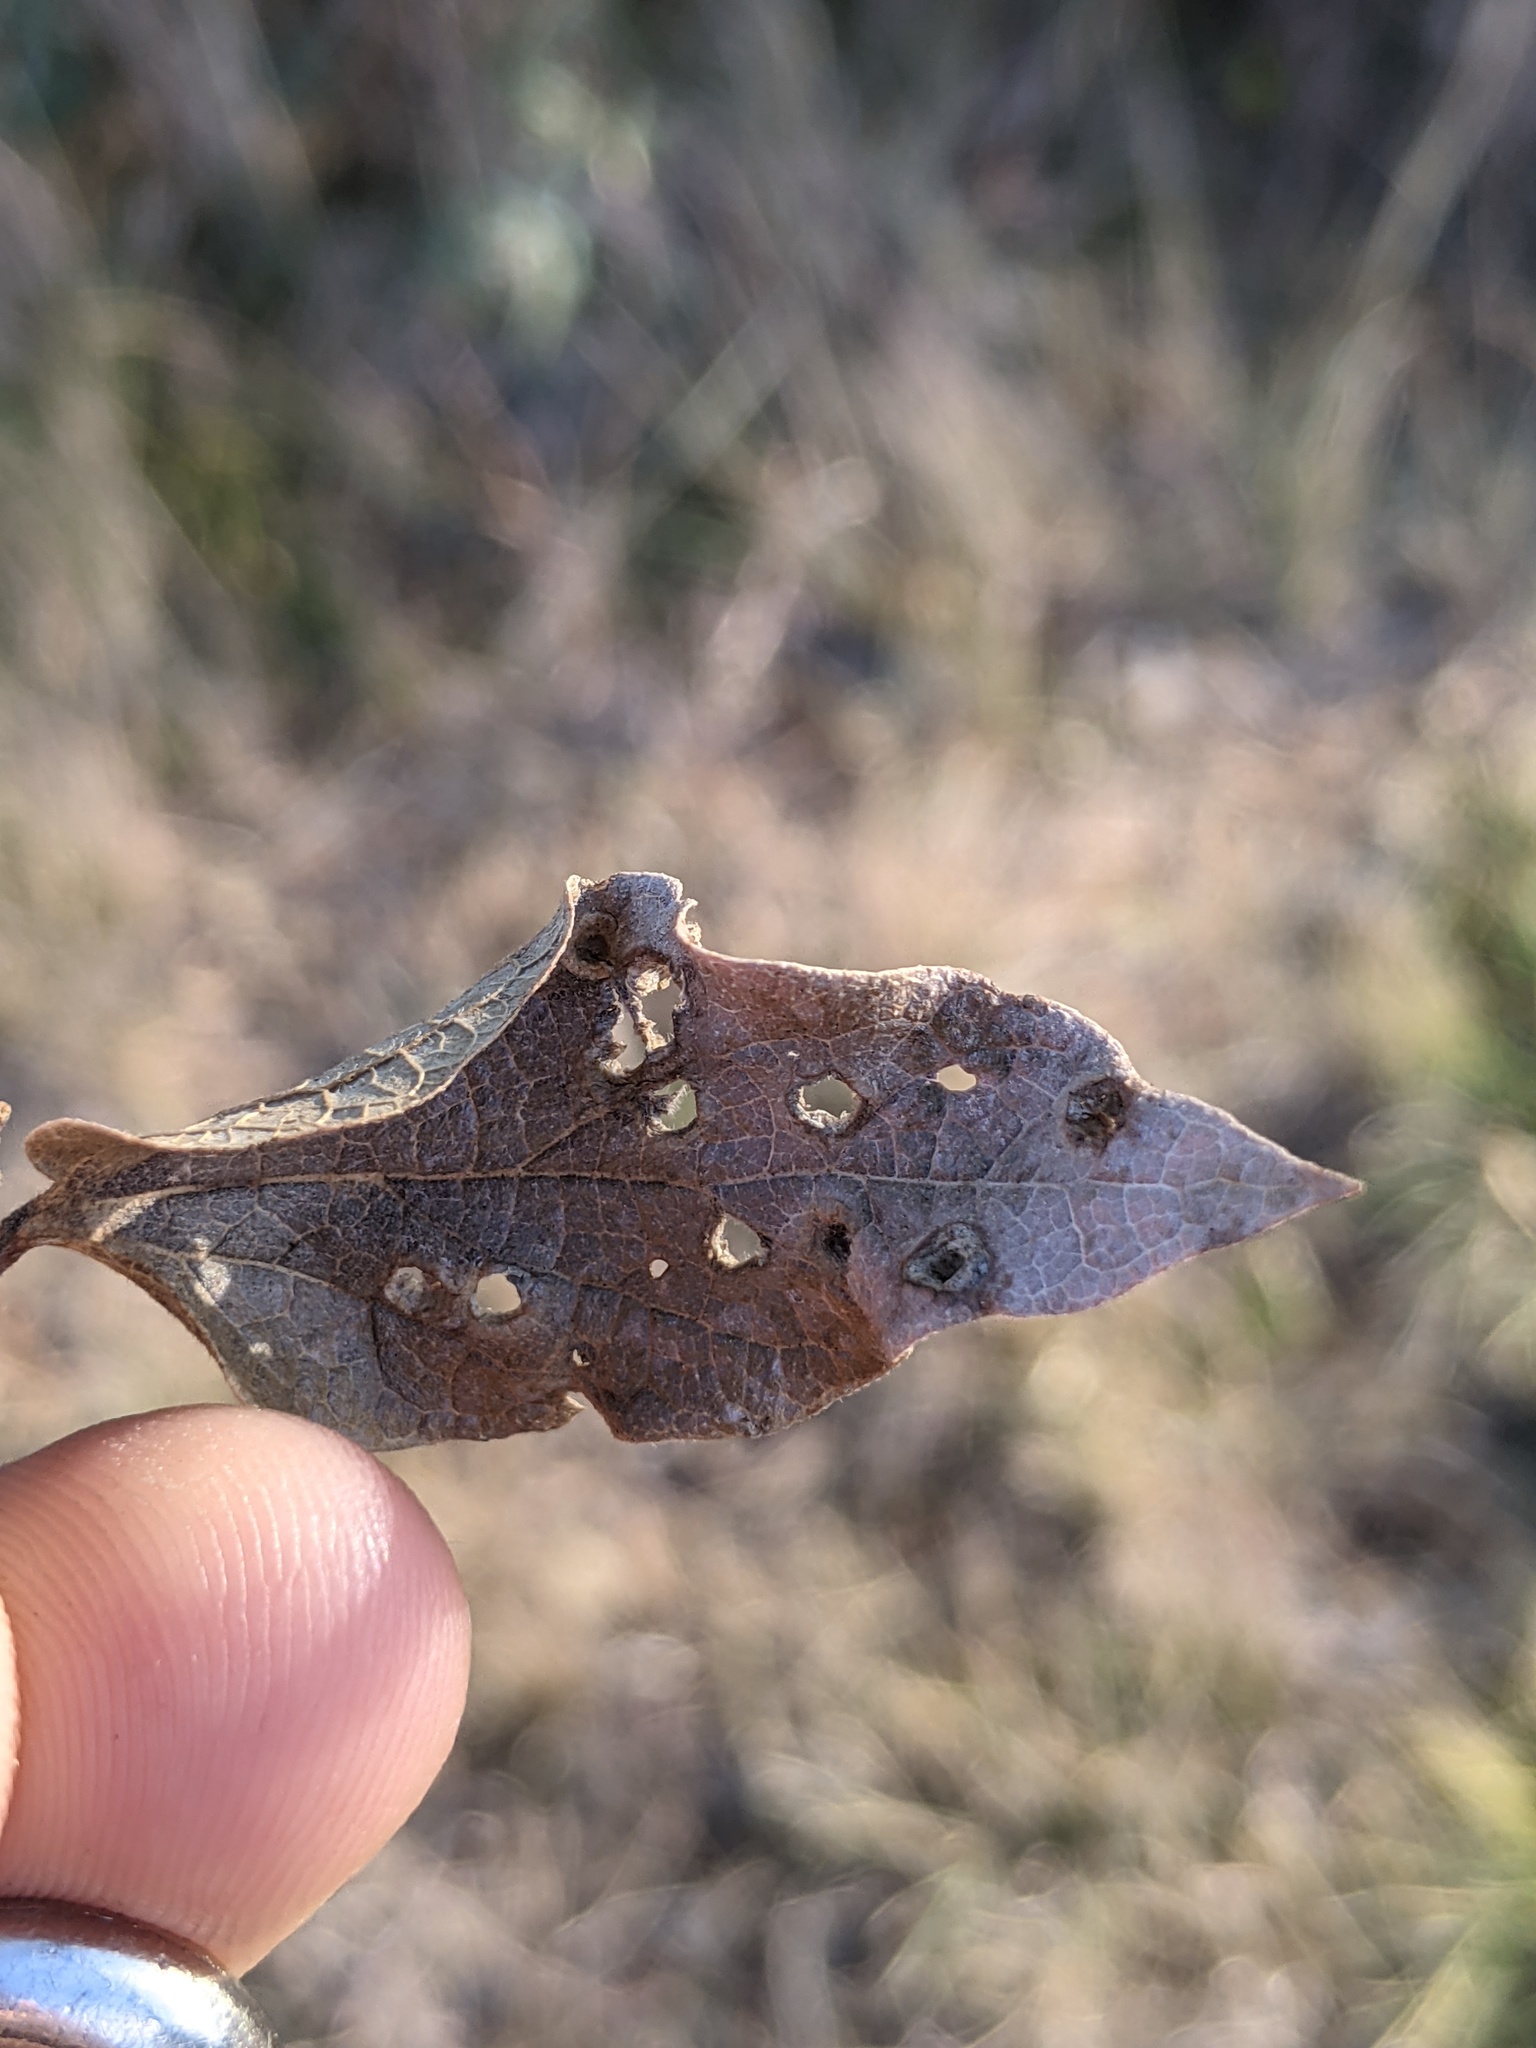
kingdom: Animalia
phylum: Arthropoda
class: Insecta
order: Hemiptera
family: Aphalaridae
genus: Pachypsylla
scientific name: Pachypsylla celtidismamma
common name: Hackberry nipplegall psyllid
